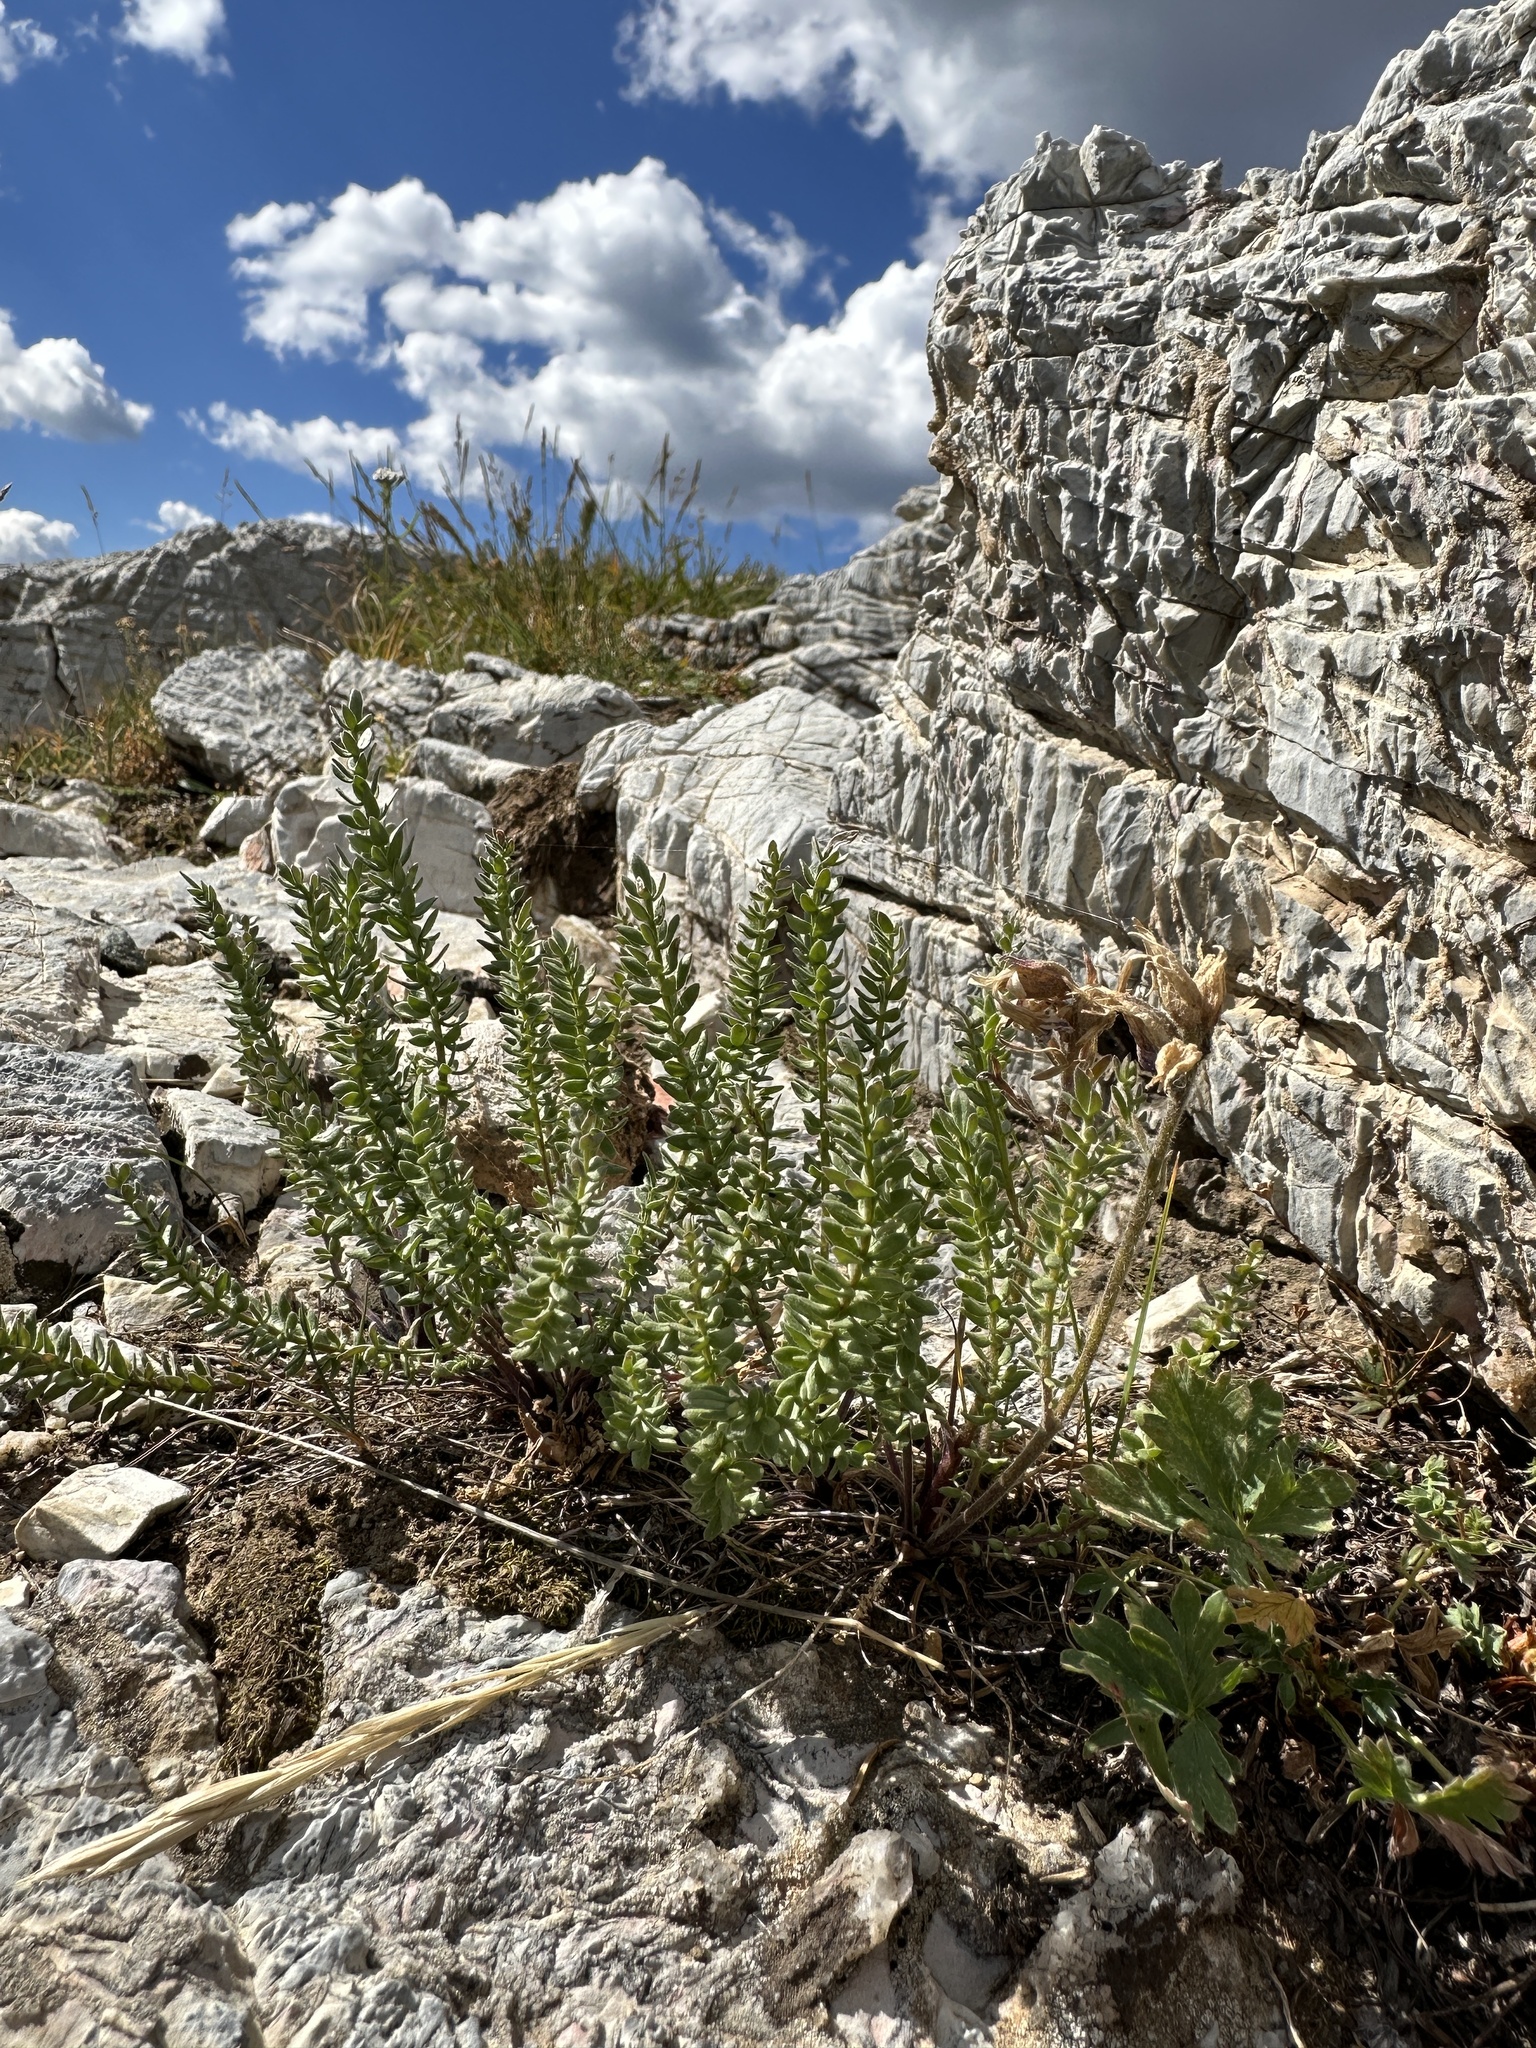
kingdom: Plantae
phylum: Tracheophyta
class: Magnoliopsida
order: Ericales
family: Polemoniaceae
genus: Polemonium
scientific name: Polemonium viscosum
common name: Skunk jacob's-ladder
